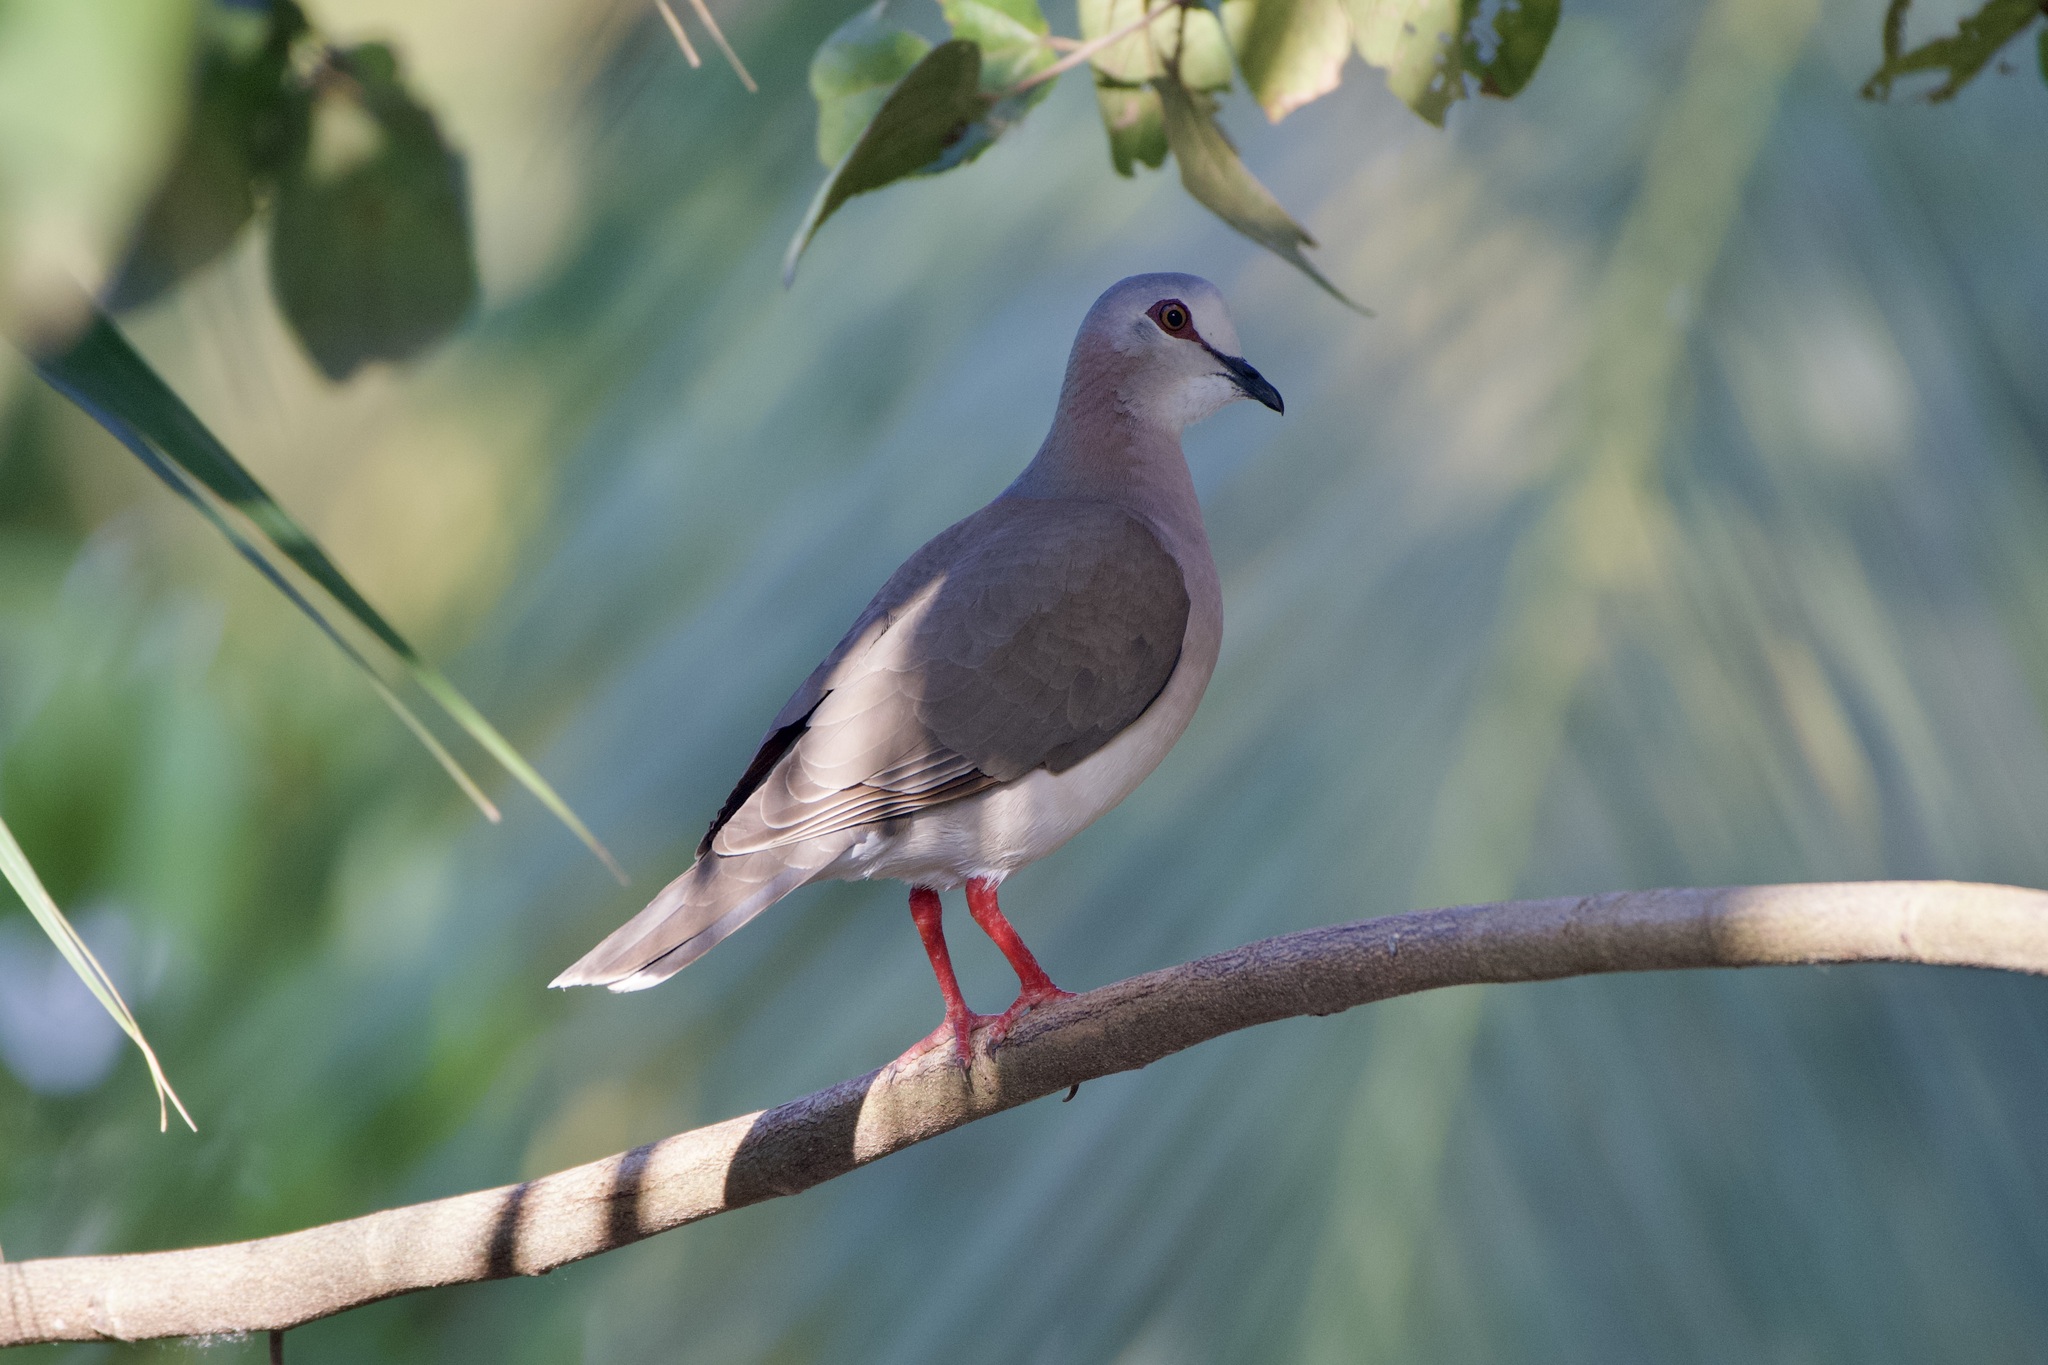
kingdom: Animalia
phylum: Chordata
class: Aves
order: Columbiformes
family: Columbidae
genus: Leptotila
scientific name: Leptotila jamaicensis
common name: Caribbean dove
